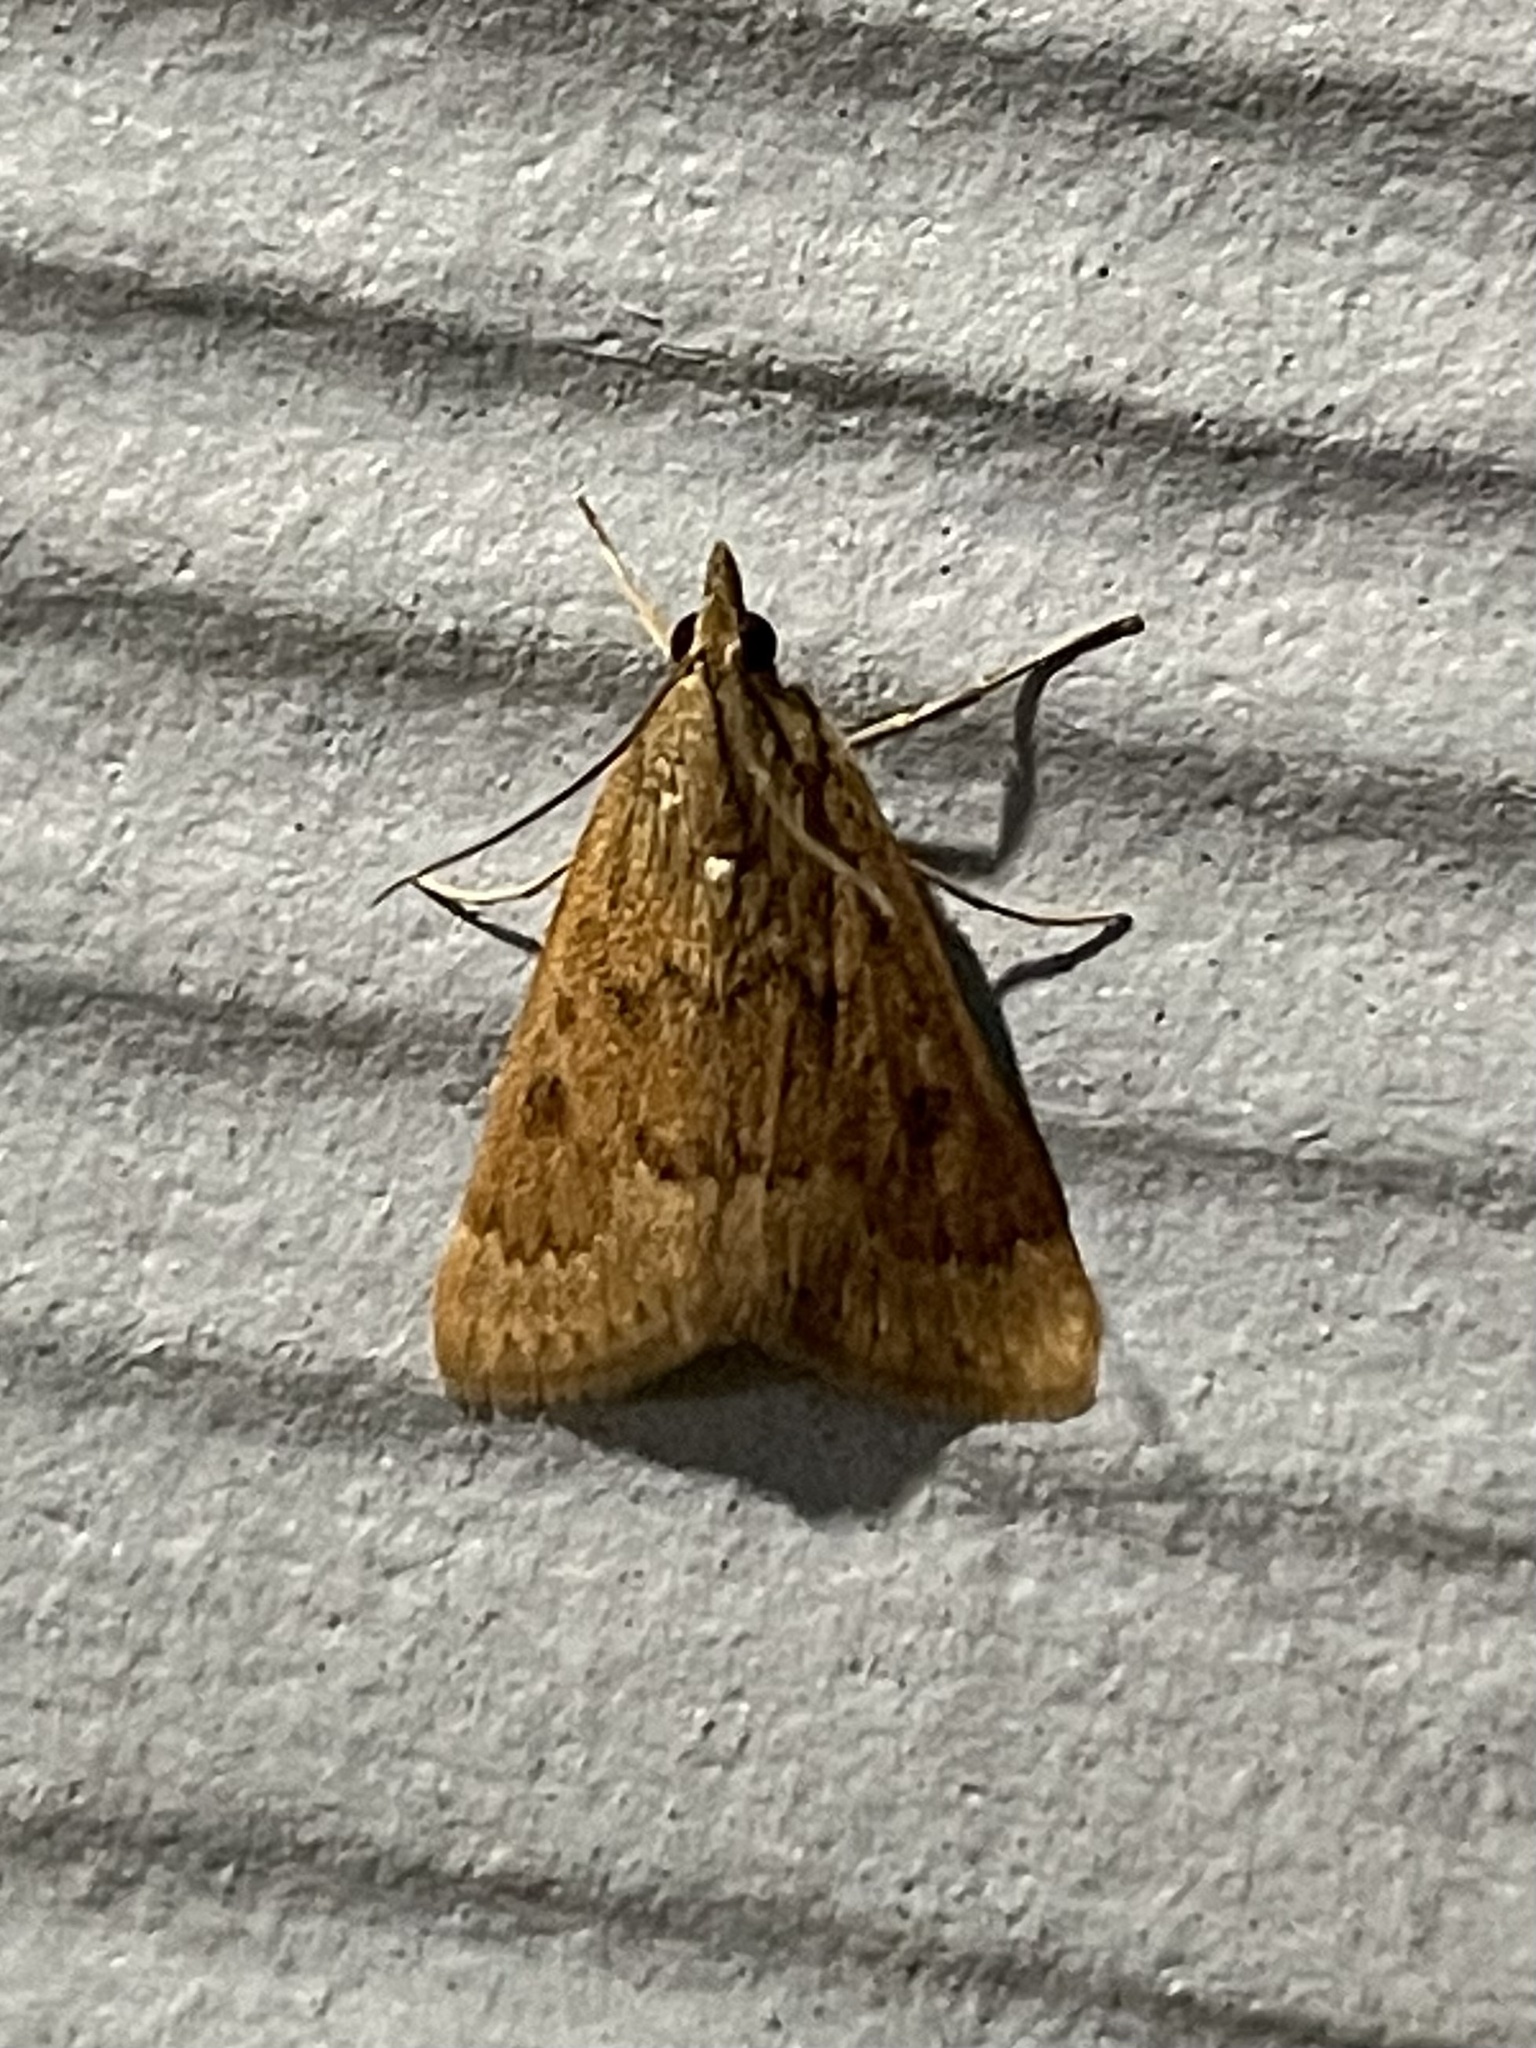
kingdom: Animalia
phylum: Arthropoda
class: Insecta
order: Lepidoptera
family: Crambidae
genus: Achyra
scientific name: Achyra rantalis
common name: Garden webworm
